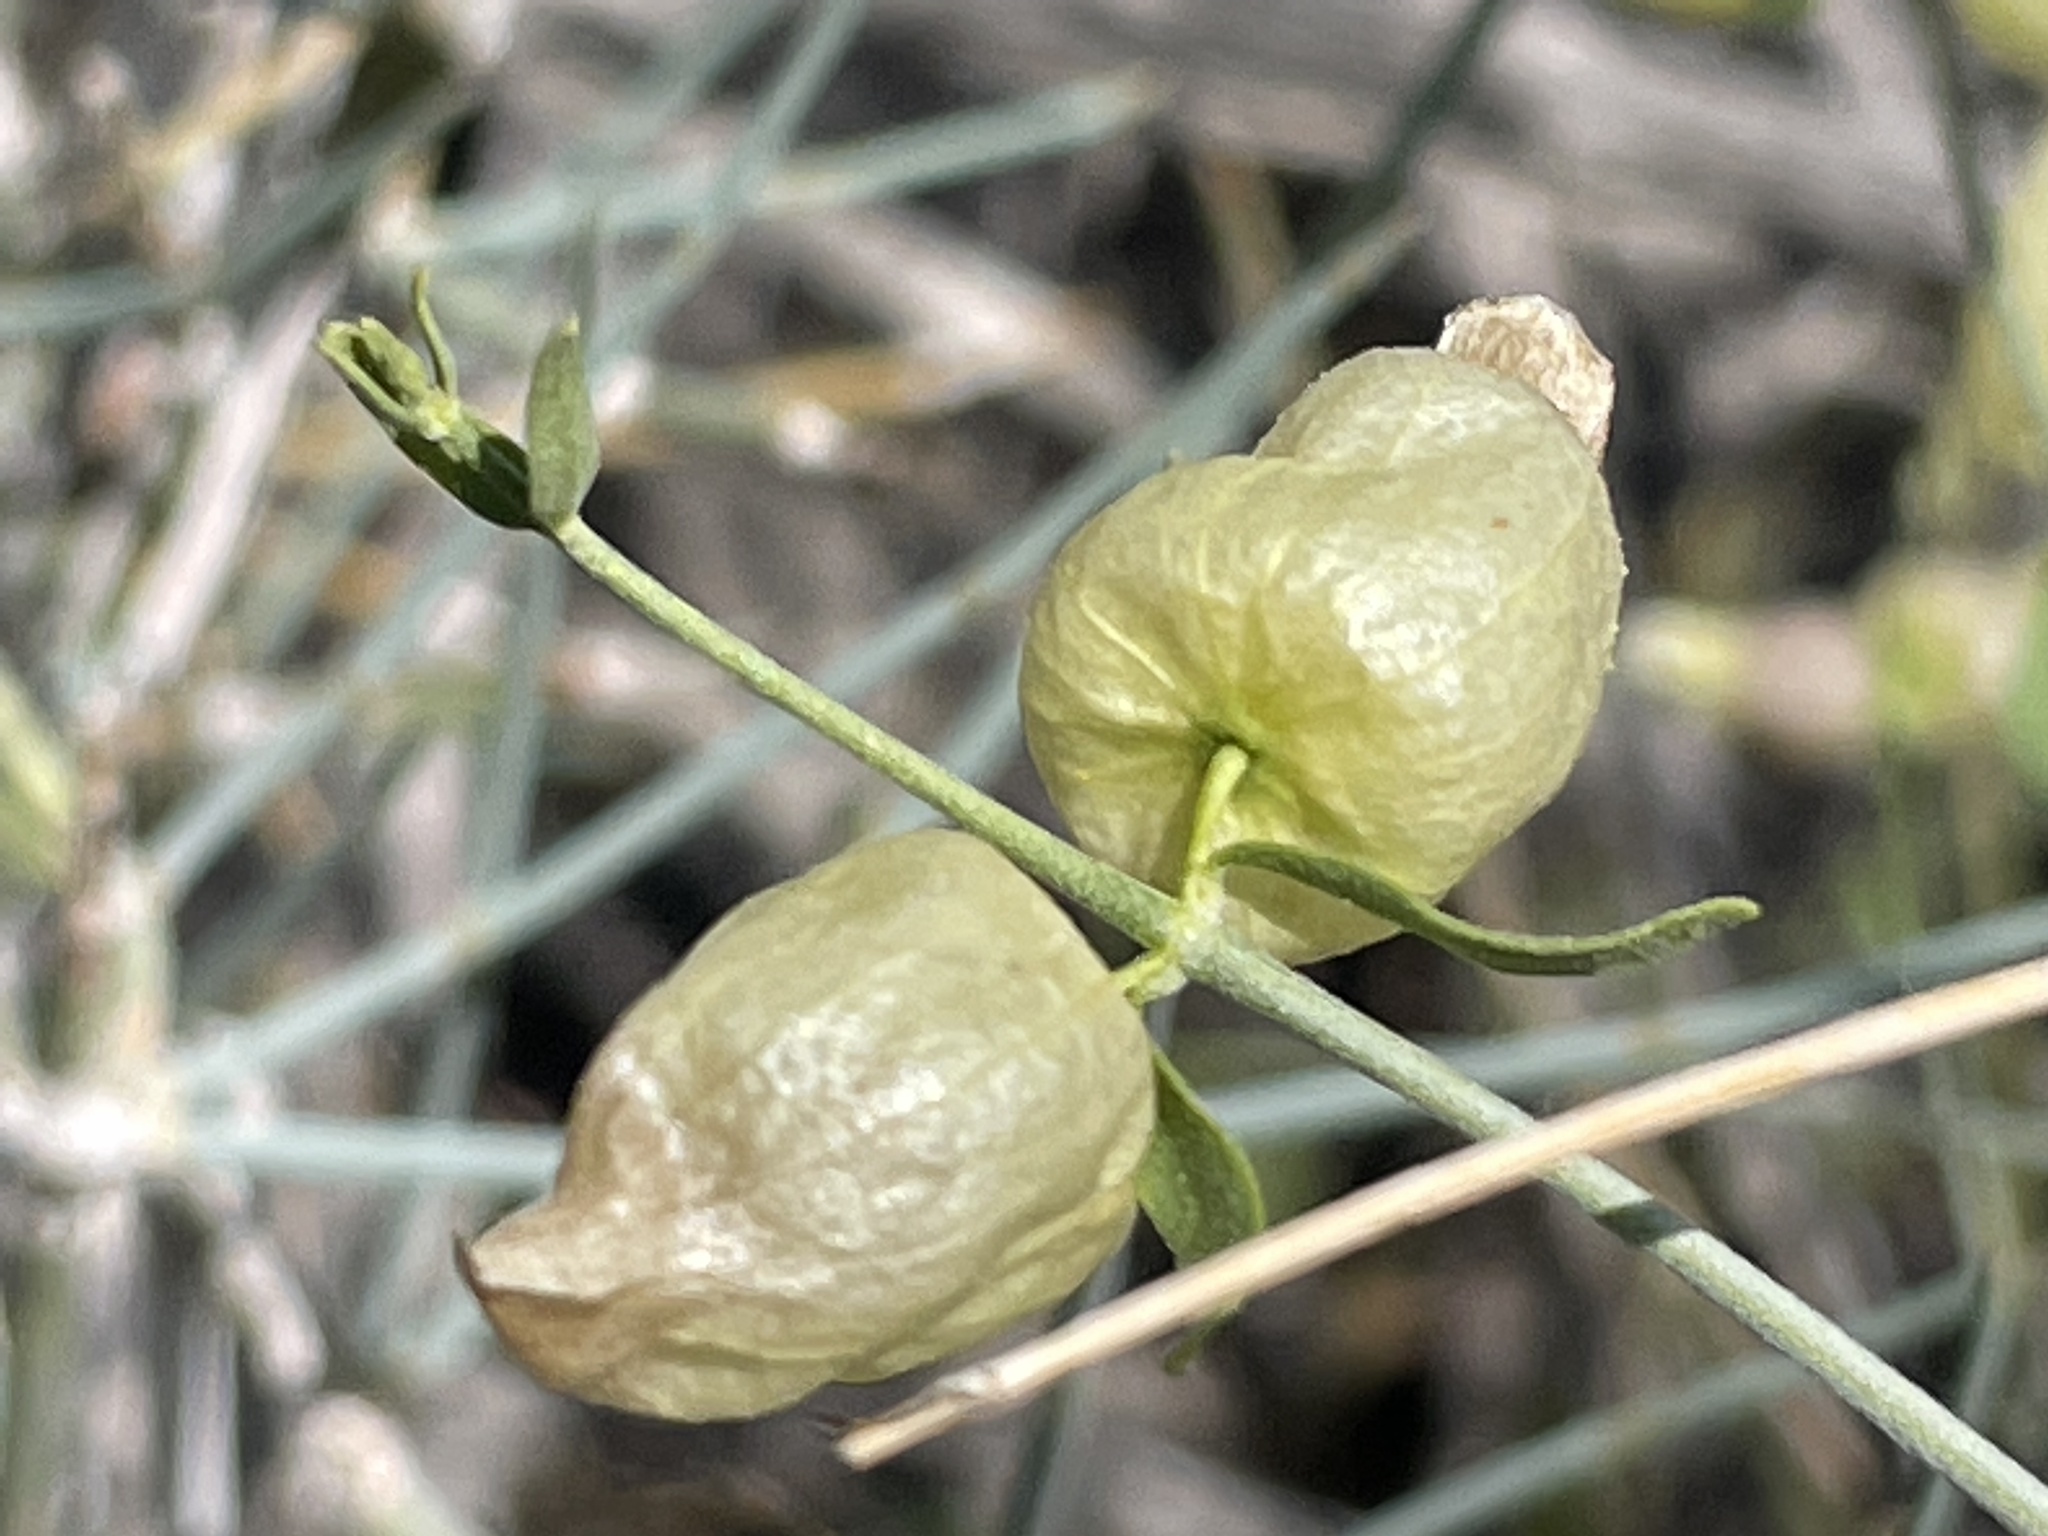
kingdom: Plantae
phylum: Tracheophyta
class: Magnoliopsida
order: Lamiales
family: Lamiaceae
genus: Scutellaria
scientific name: Scutellaria mexicana
